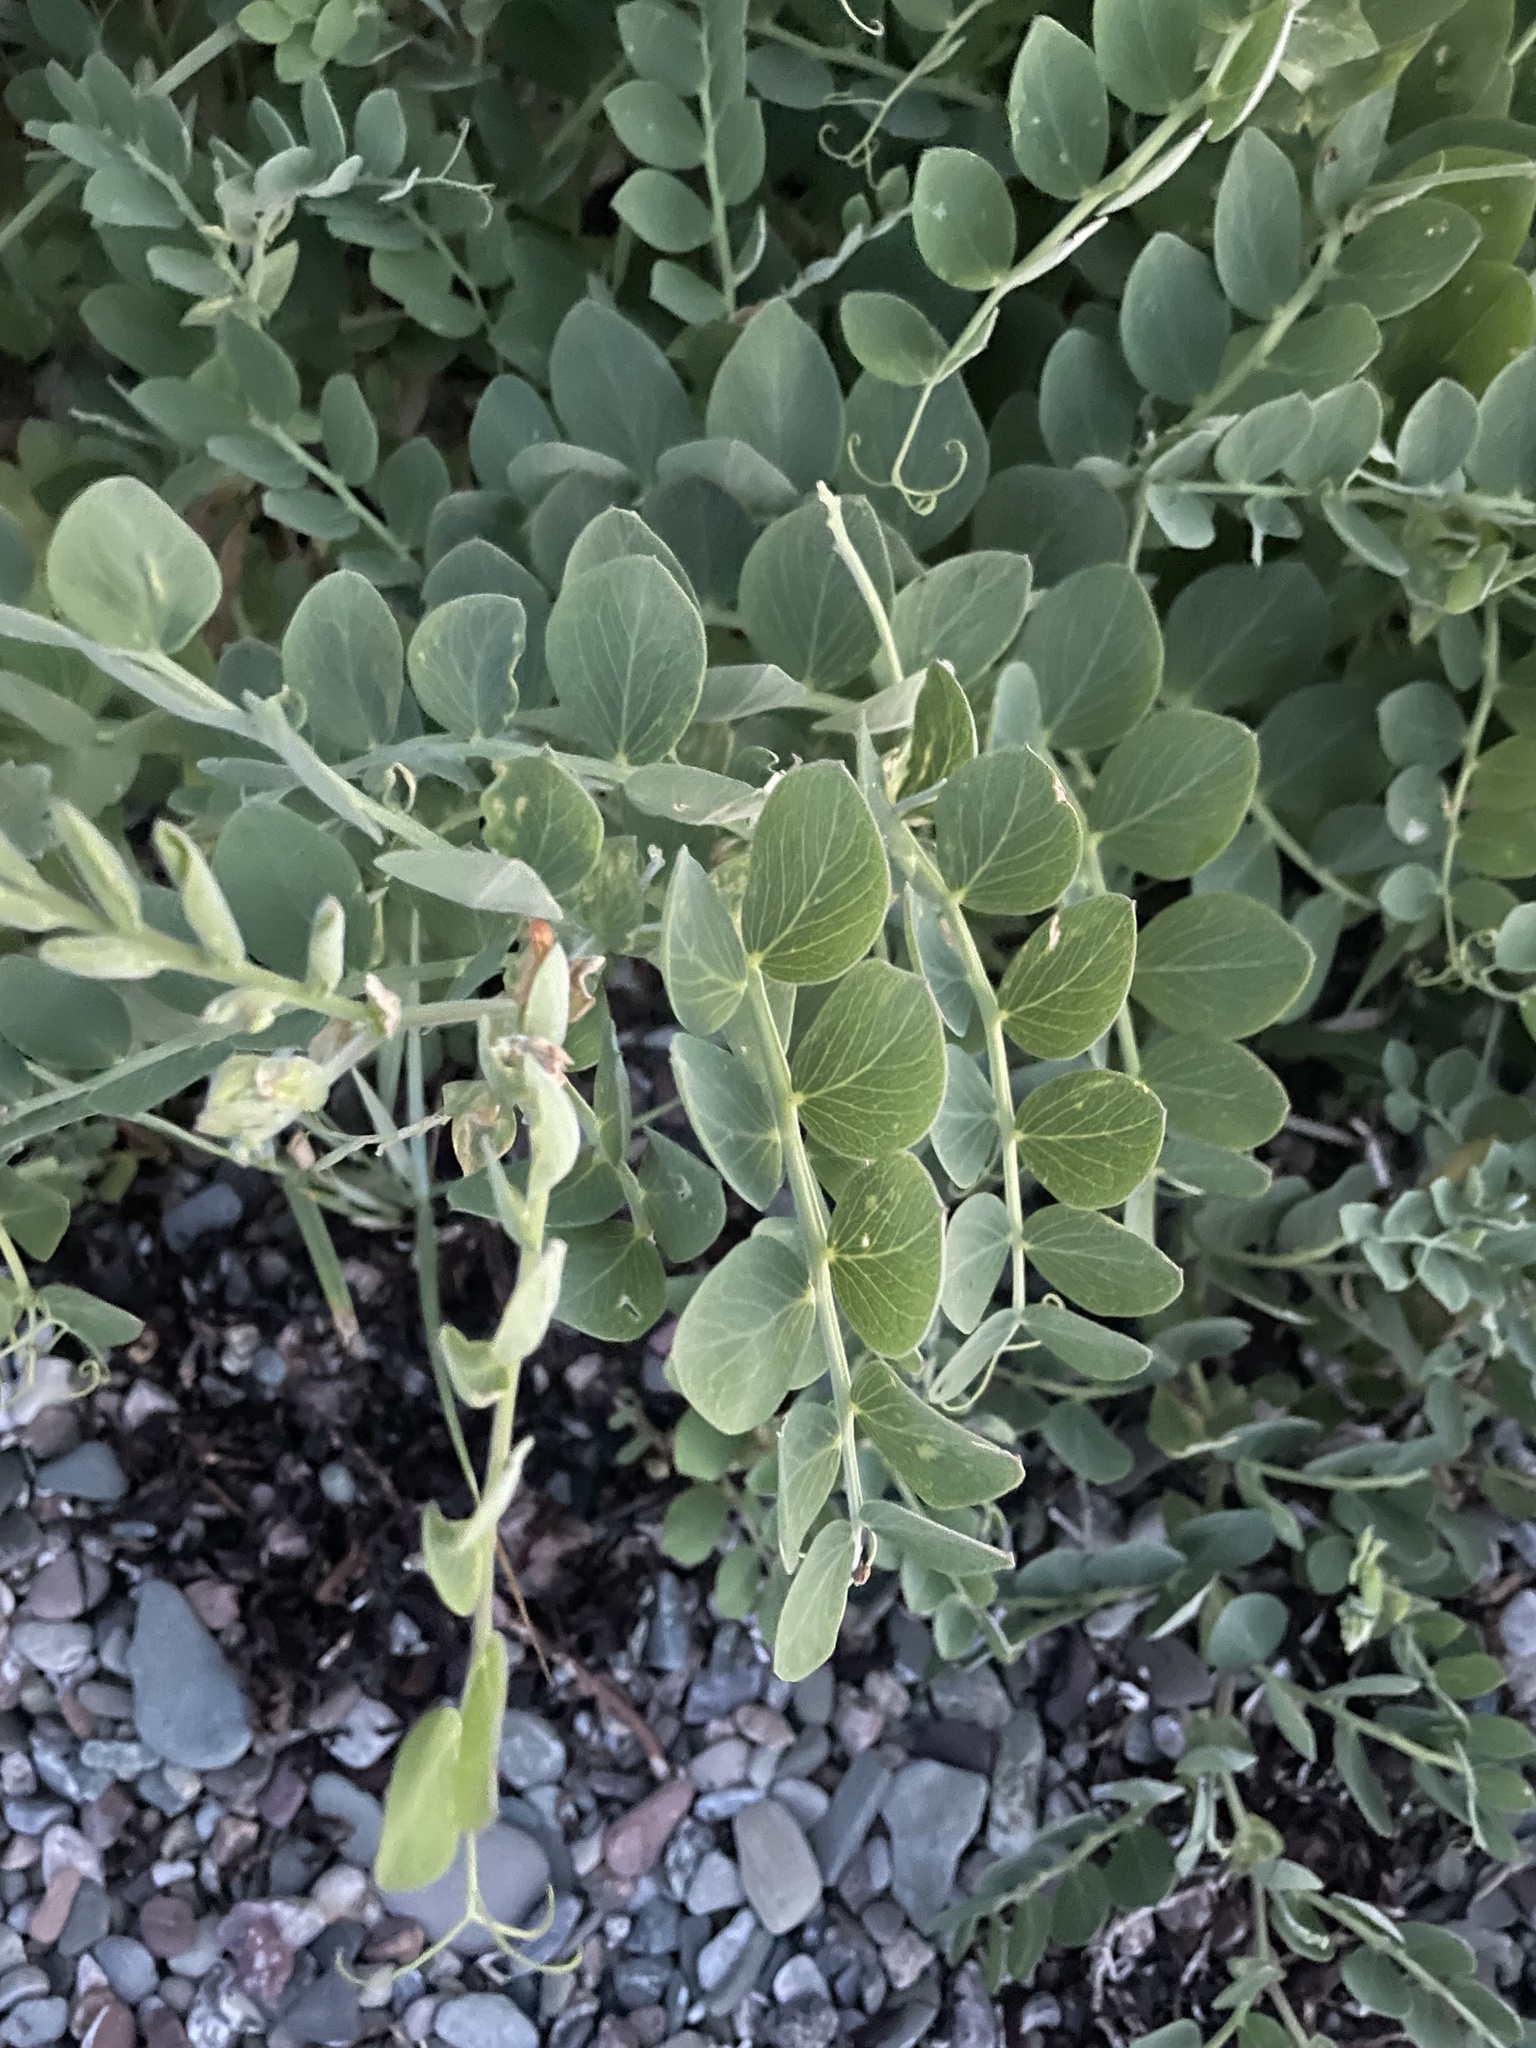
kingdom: Plantae
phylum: Tracheophyta
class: Magnoliopsida
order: Fabales
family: Fabaceae
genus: Lathyrus
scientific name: Lathyrus japonicus
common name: Sea pea
